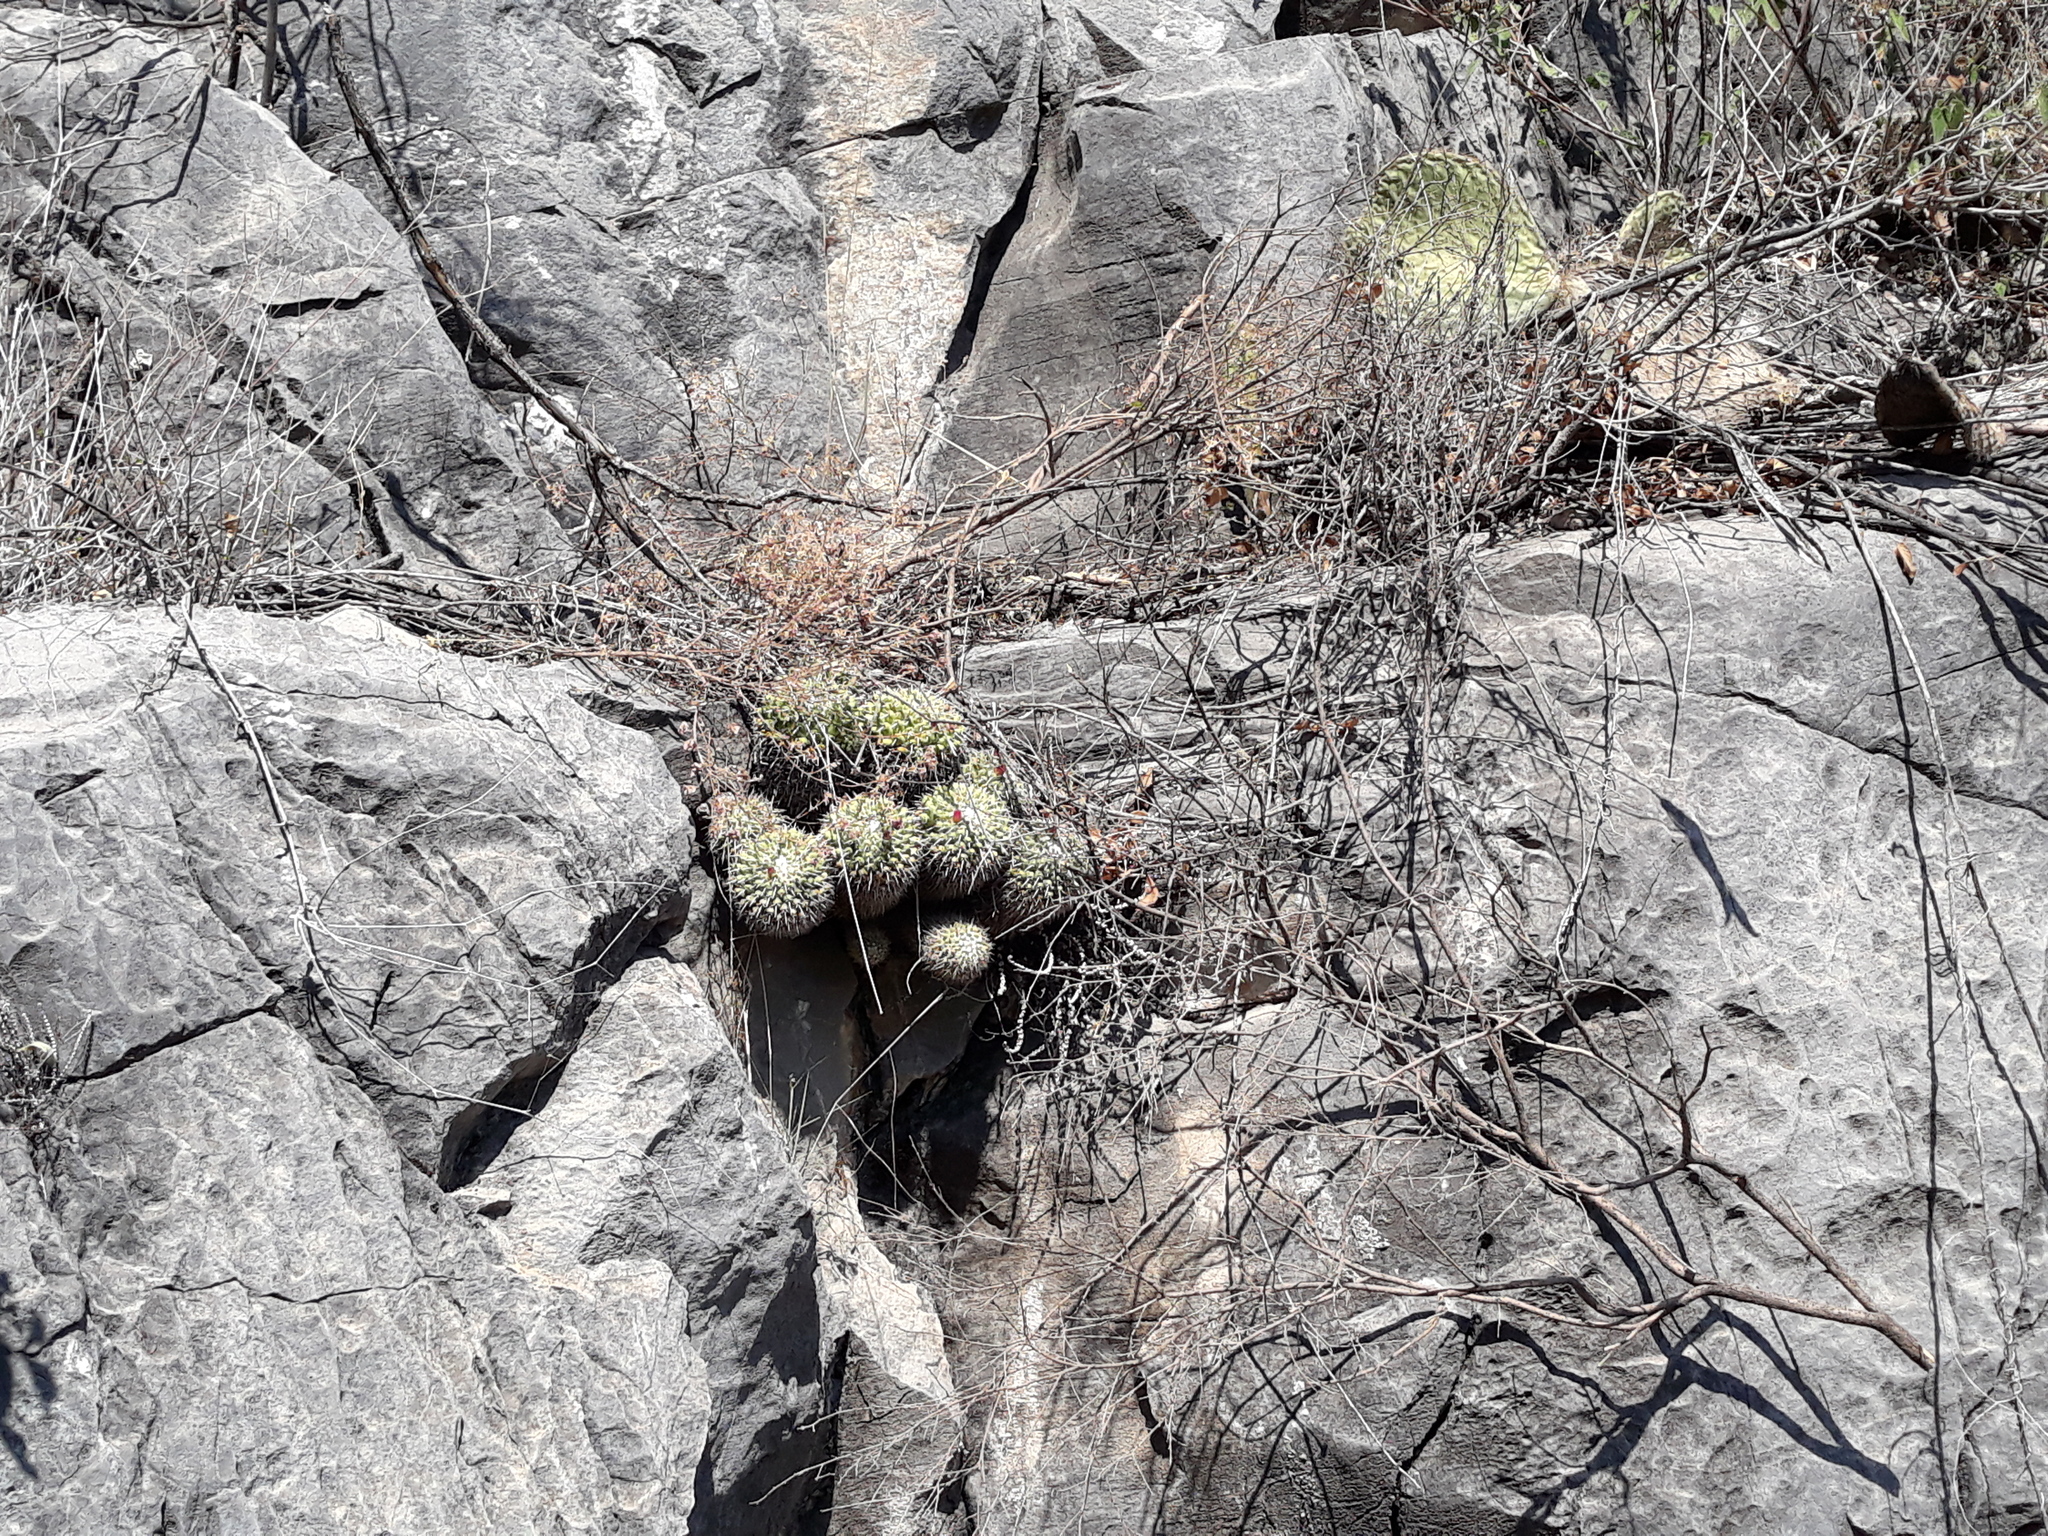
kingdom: Plantae
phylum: Tracheophyta
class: Magnoliopsida
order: Caryophyllales
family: Cactaceae
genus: Mammillaria
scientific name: Mammillaria compressa
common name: Mother-of-hundreds
